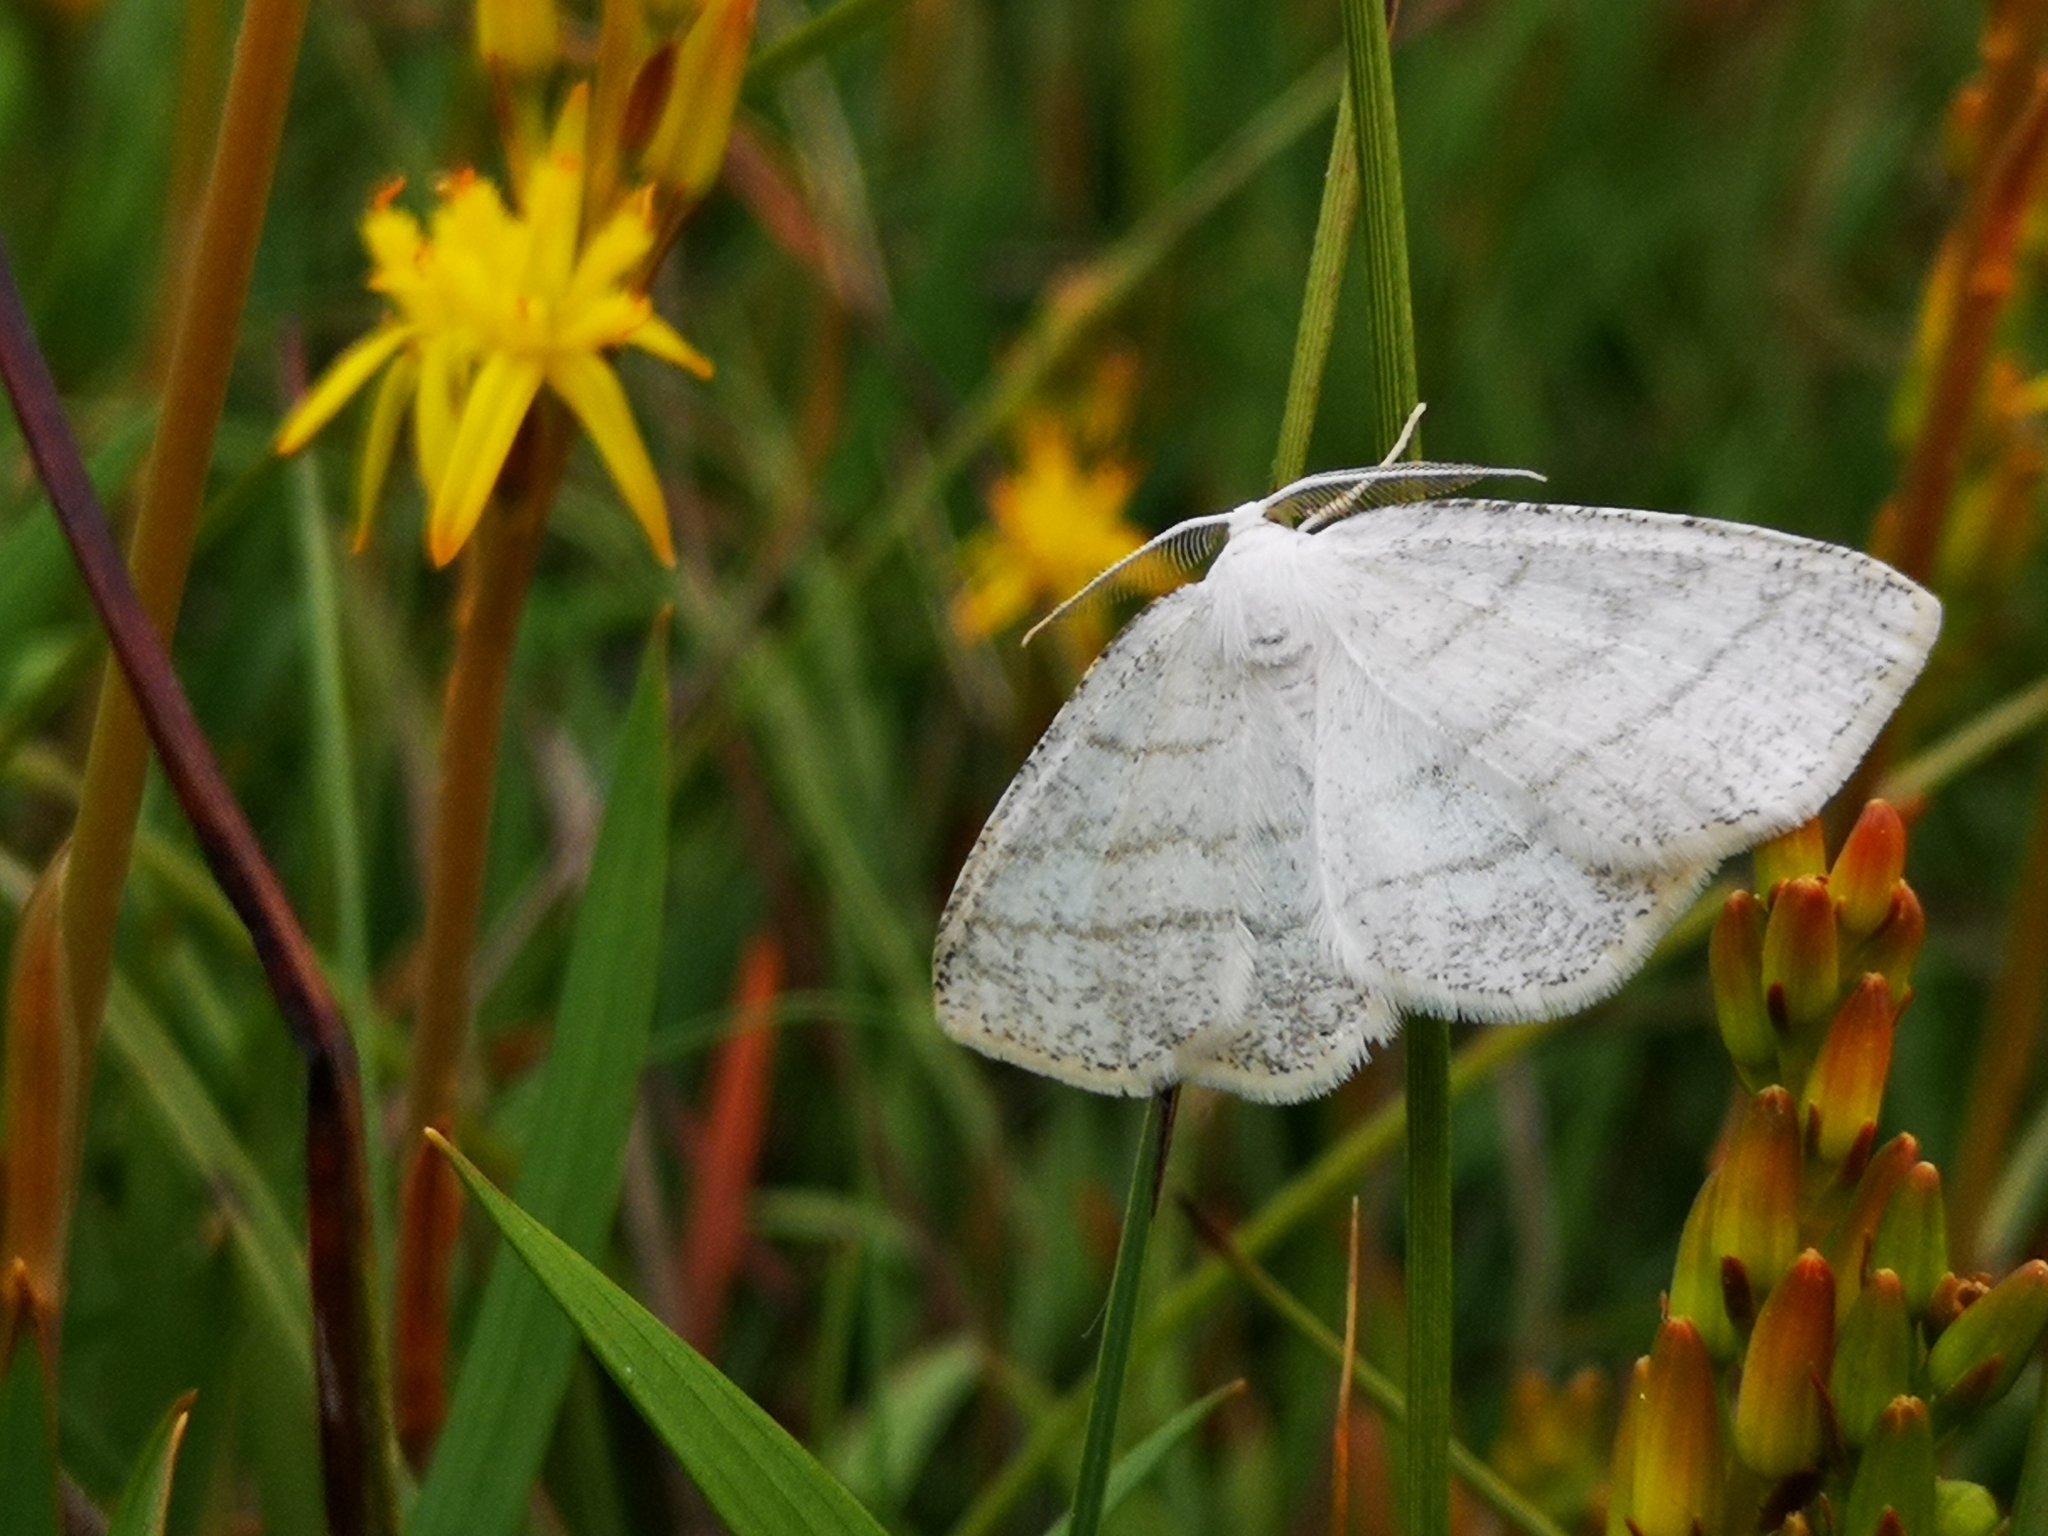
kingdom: Animalia
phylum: Arthropoda
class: Insecta
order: Lepidoptera
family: Geometridae
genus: Cabera
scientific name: Cabera pusaria
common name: Common white wave
